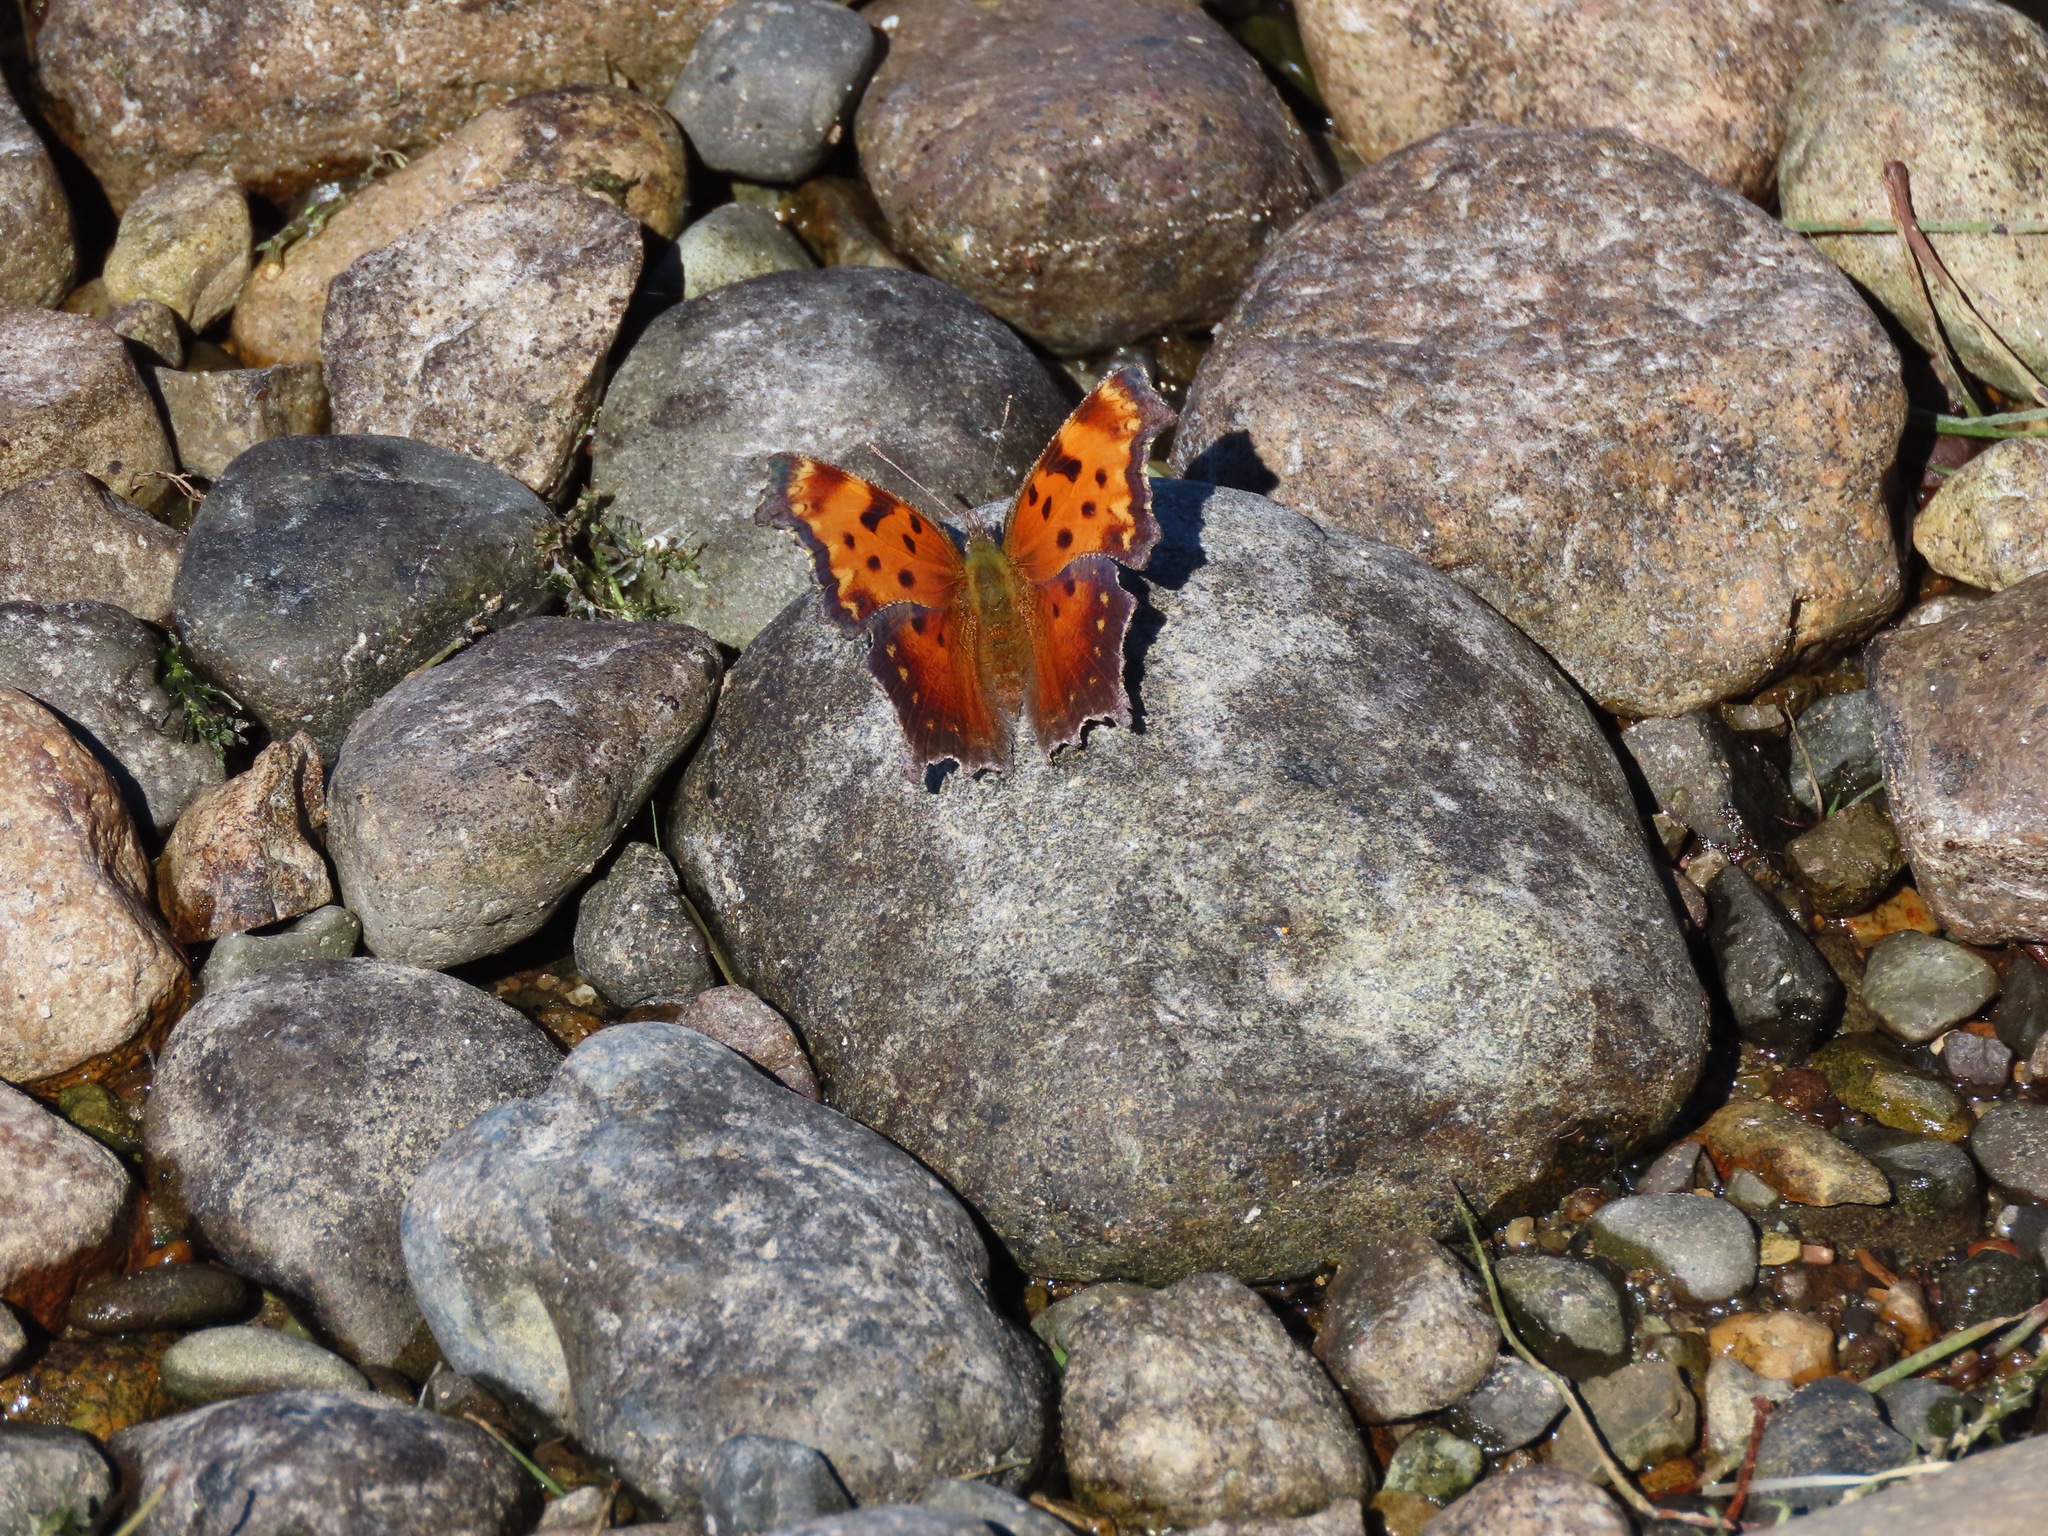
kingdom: Animalia
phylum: Arthropoda
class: Insecta
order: Lepidoptera
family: Nymphalidae
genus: Polygonia
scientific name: Polygonia progne
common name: Gray comma
